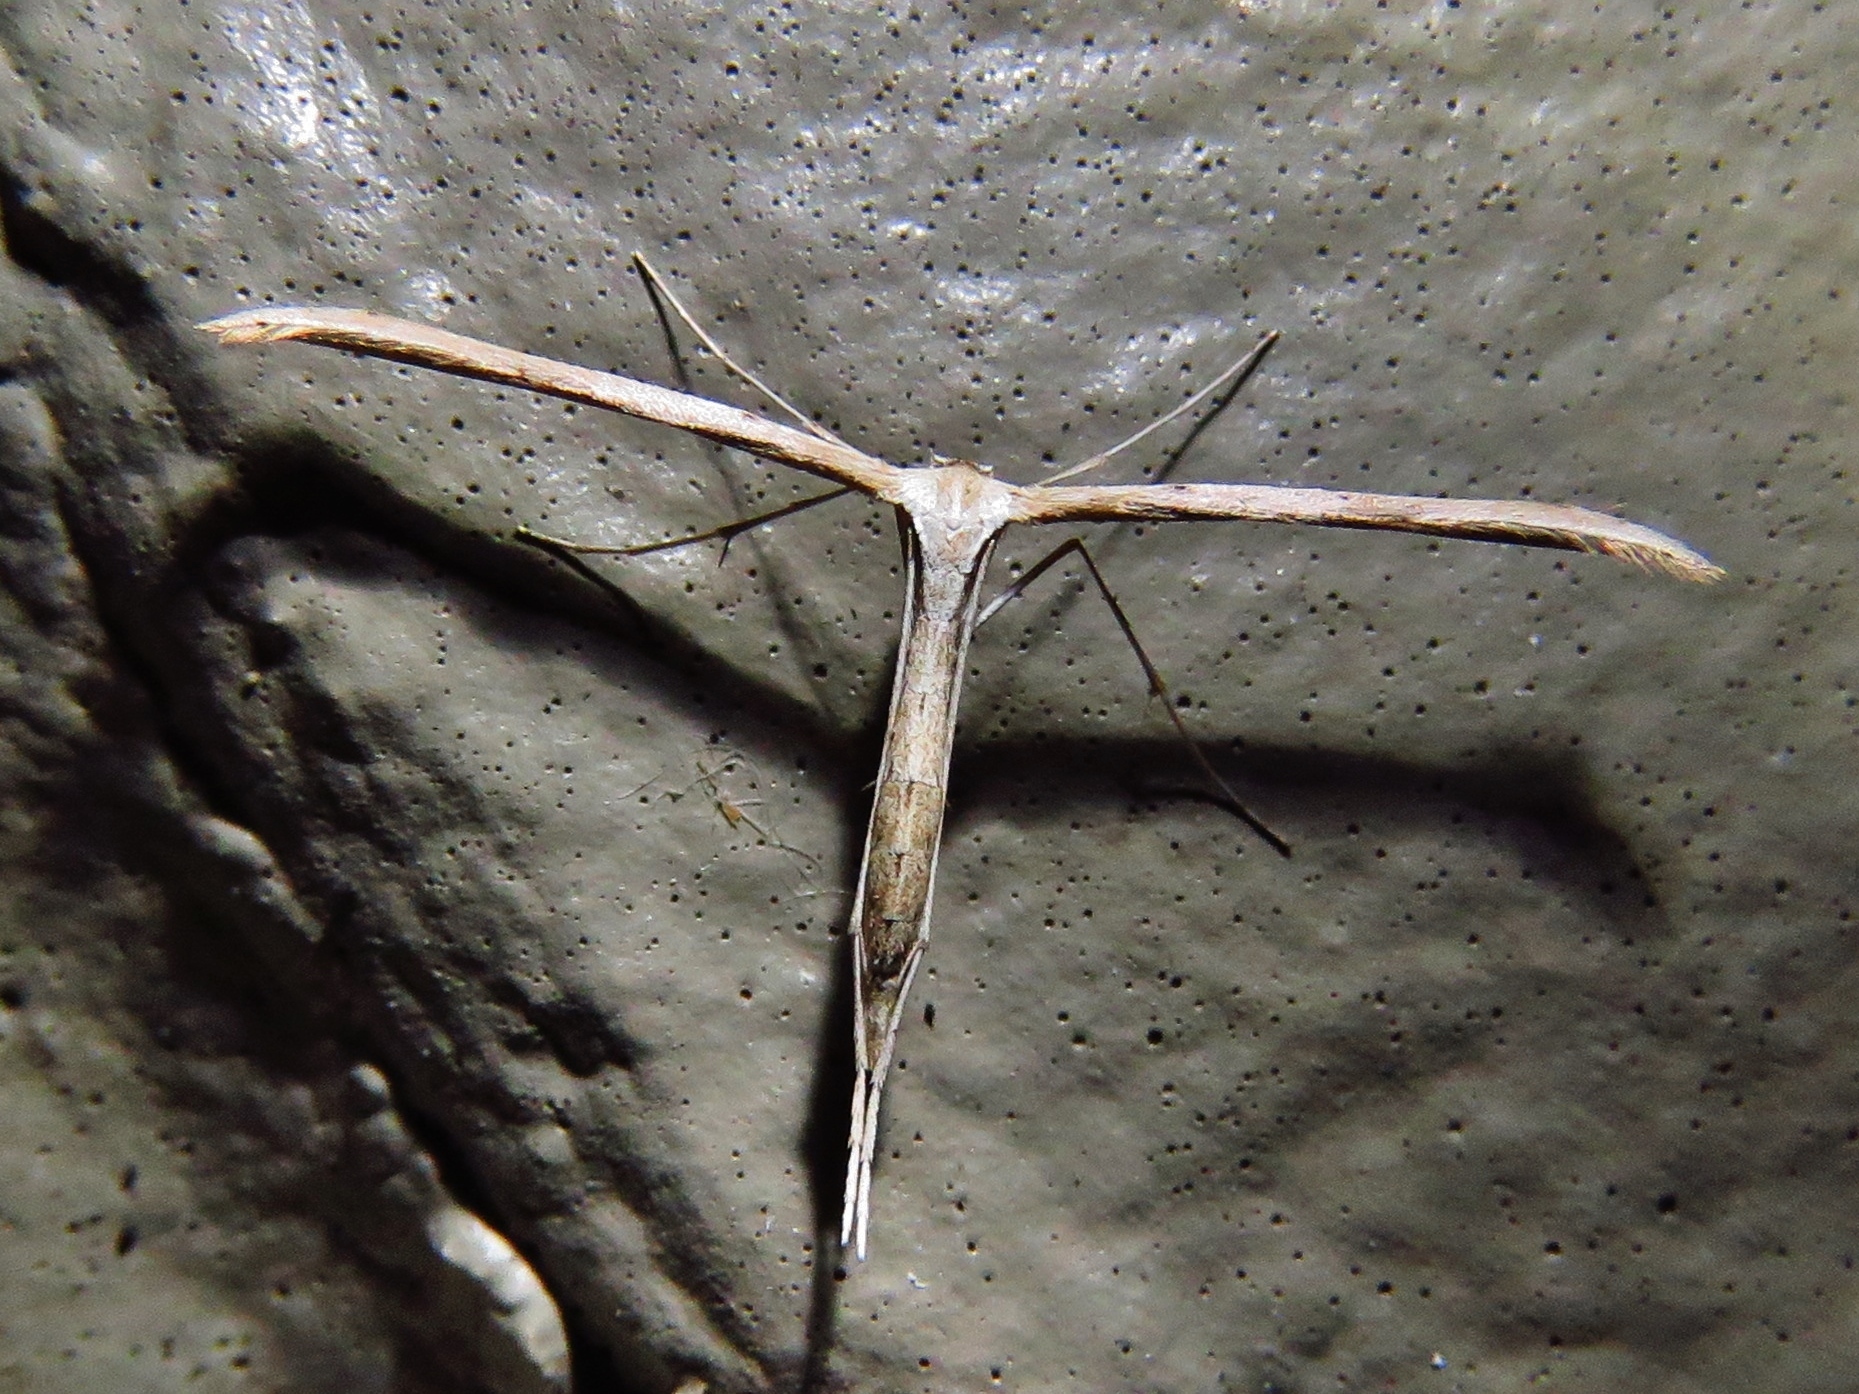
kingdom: Animalia
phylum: Arthropoda
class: Insecta
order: Lepidoptera
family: Pterophoridae
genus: Emmelina
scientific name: Emmelina monodactyla
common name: Common plume
